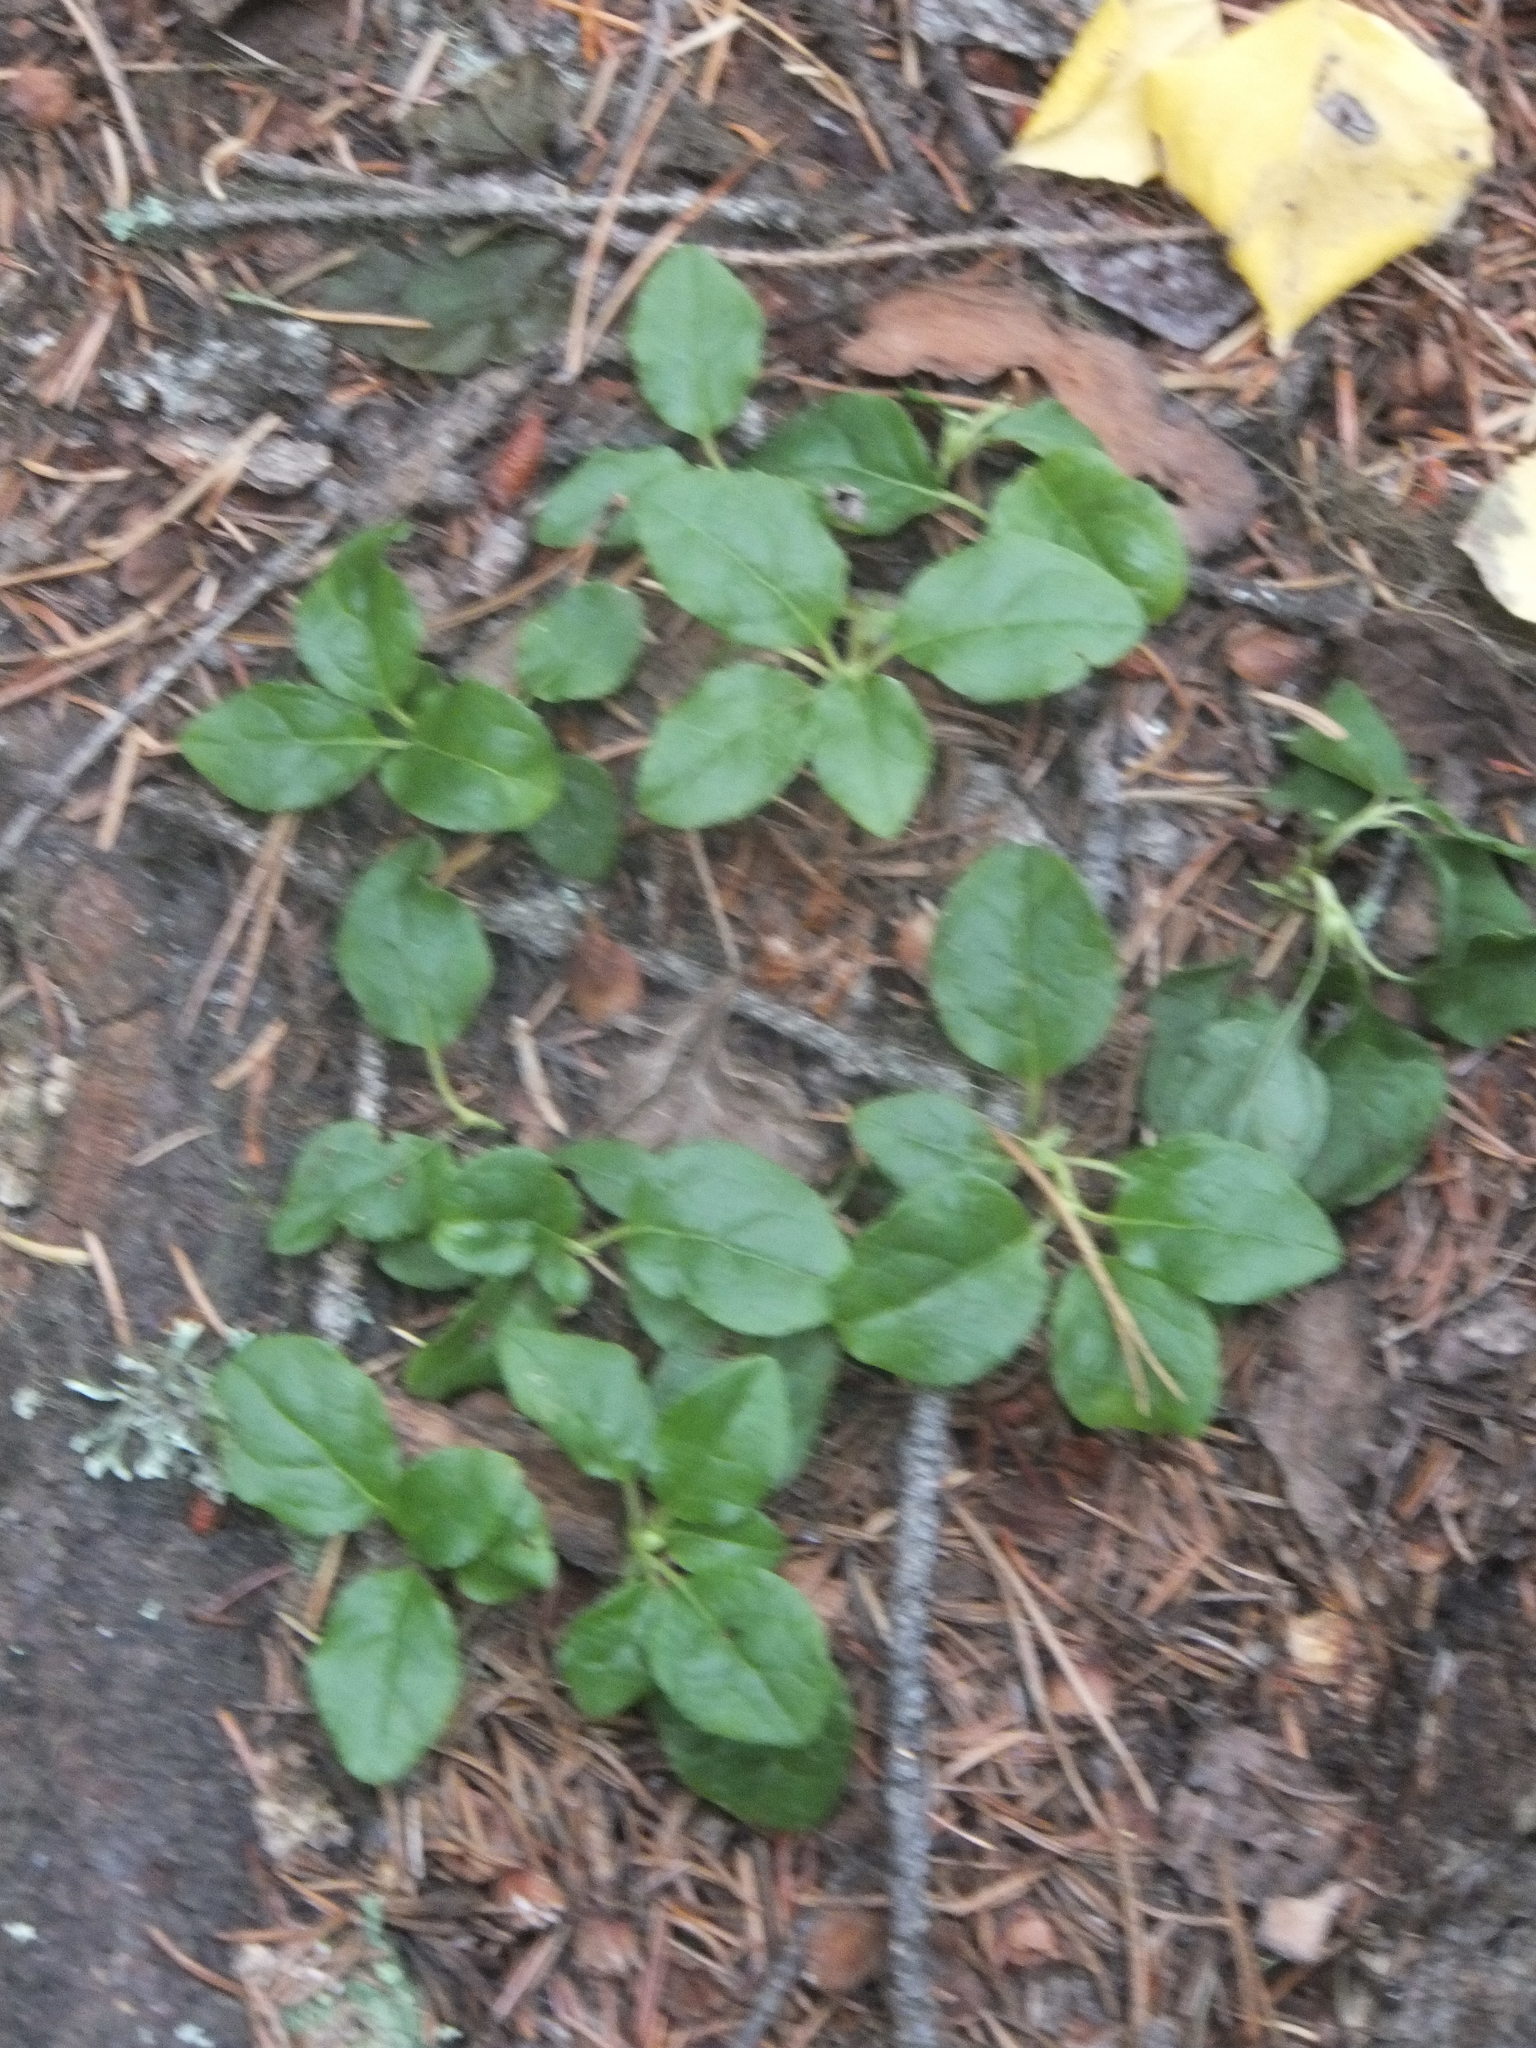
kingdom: Plantae
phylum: Tracheophyta
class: Magnoliopsida
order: Ericales
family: Ericaceae
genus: Orthilia
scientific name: Orthilia secunda
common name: One-sided orthilia
